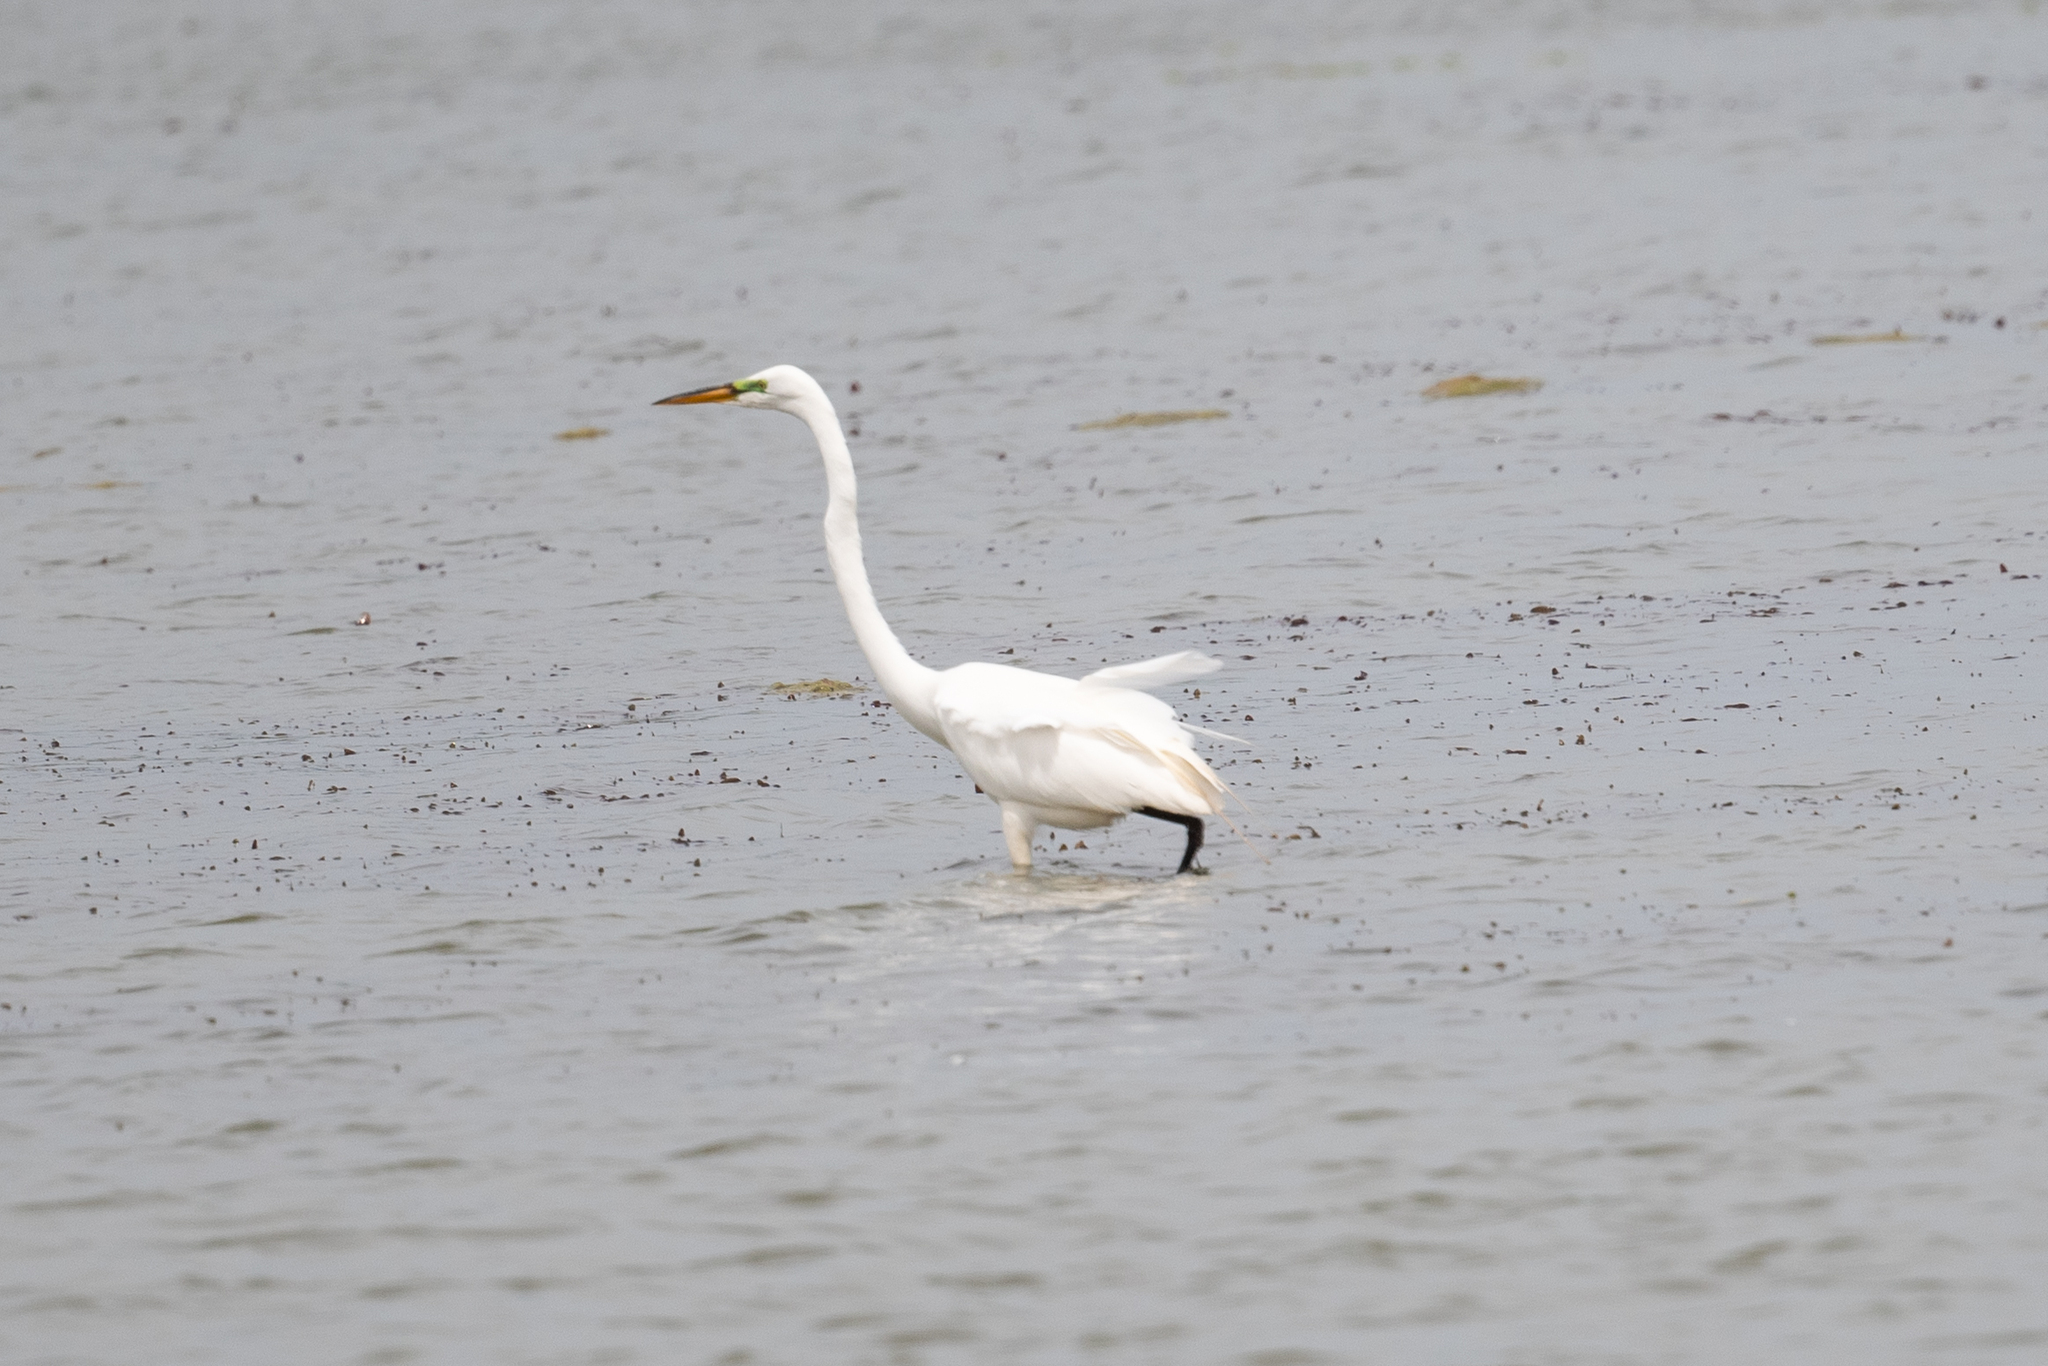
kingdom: Animalia
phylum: Chordata
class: Aves
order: Pelecaniformes
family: Ardeidae
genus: Ardea
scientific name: Ardea alba
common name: Great egret
